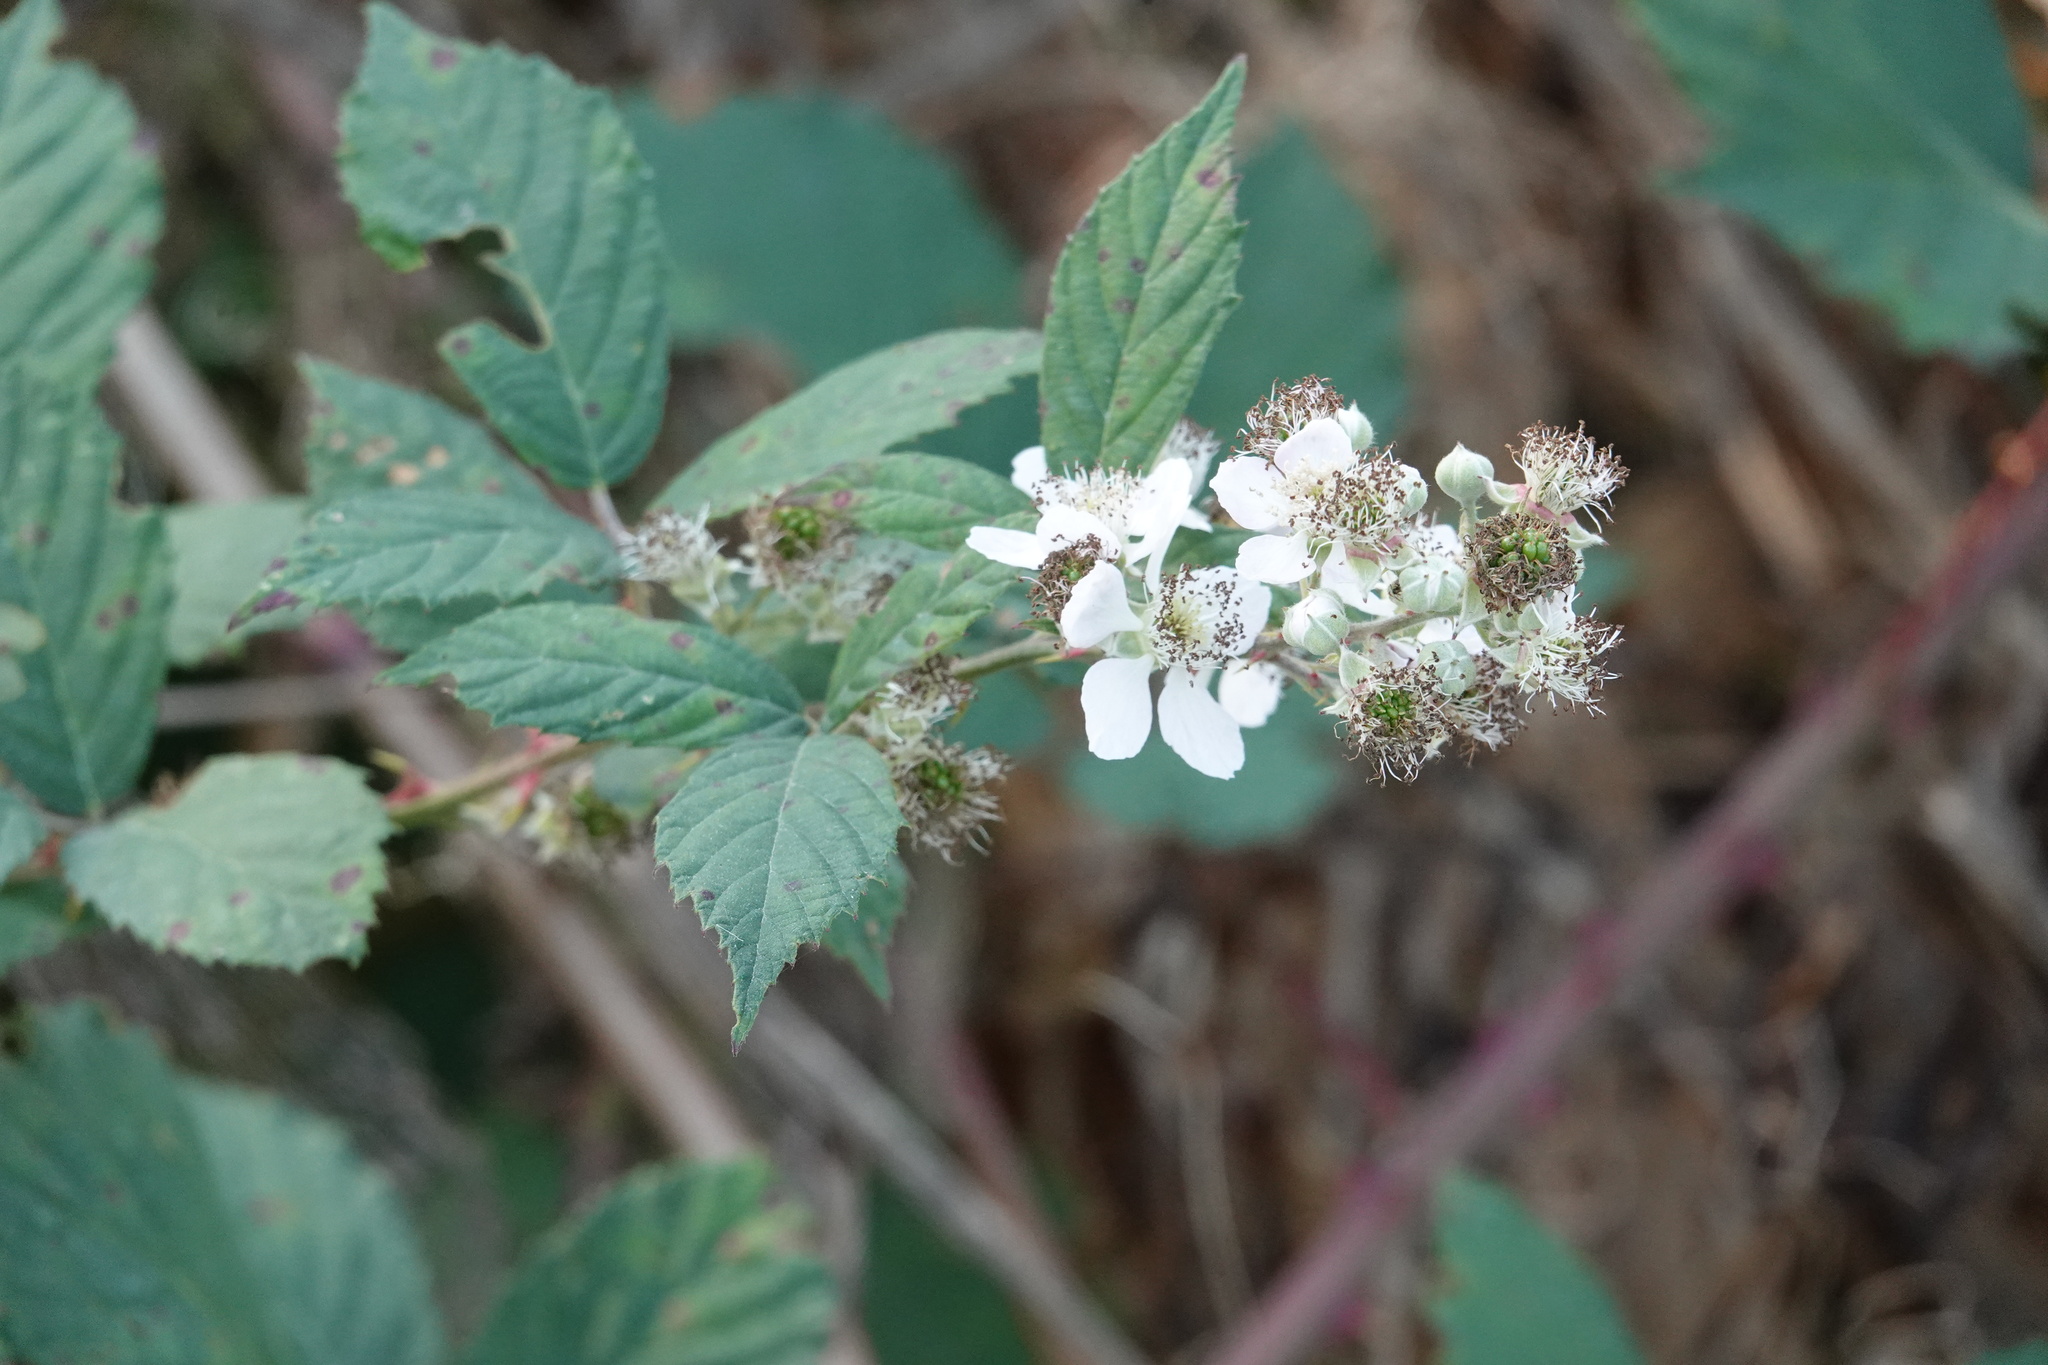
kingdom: Plantae
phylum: Tracheophyta
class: Magnoliopsida
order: Rosales
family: Rosaceae
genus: Rubus
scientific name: Rubus bifrons
